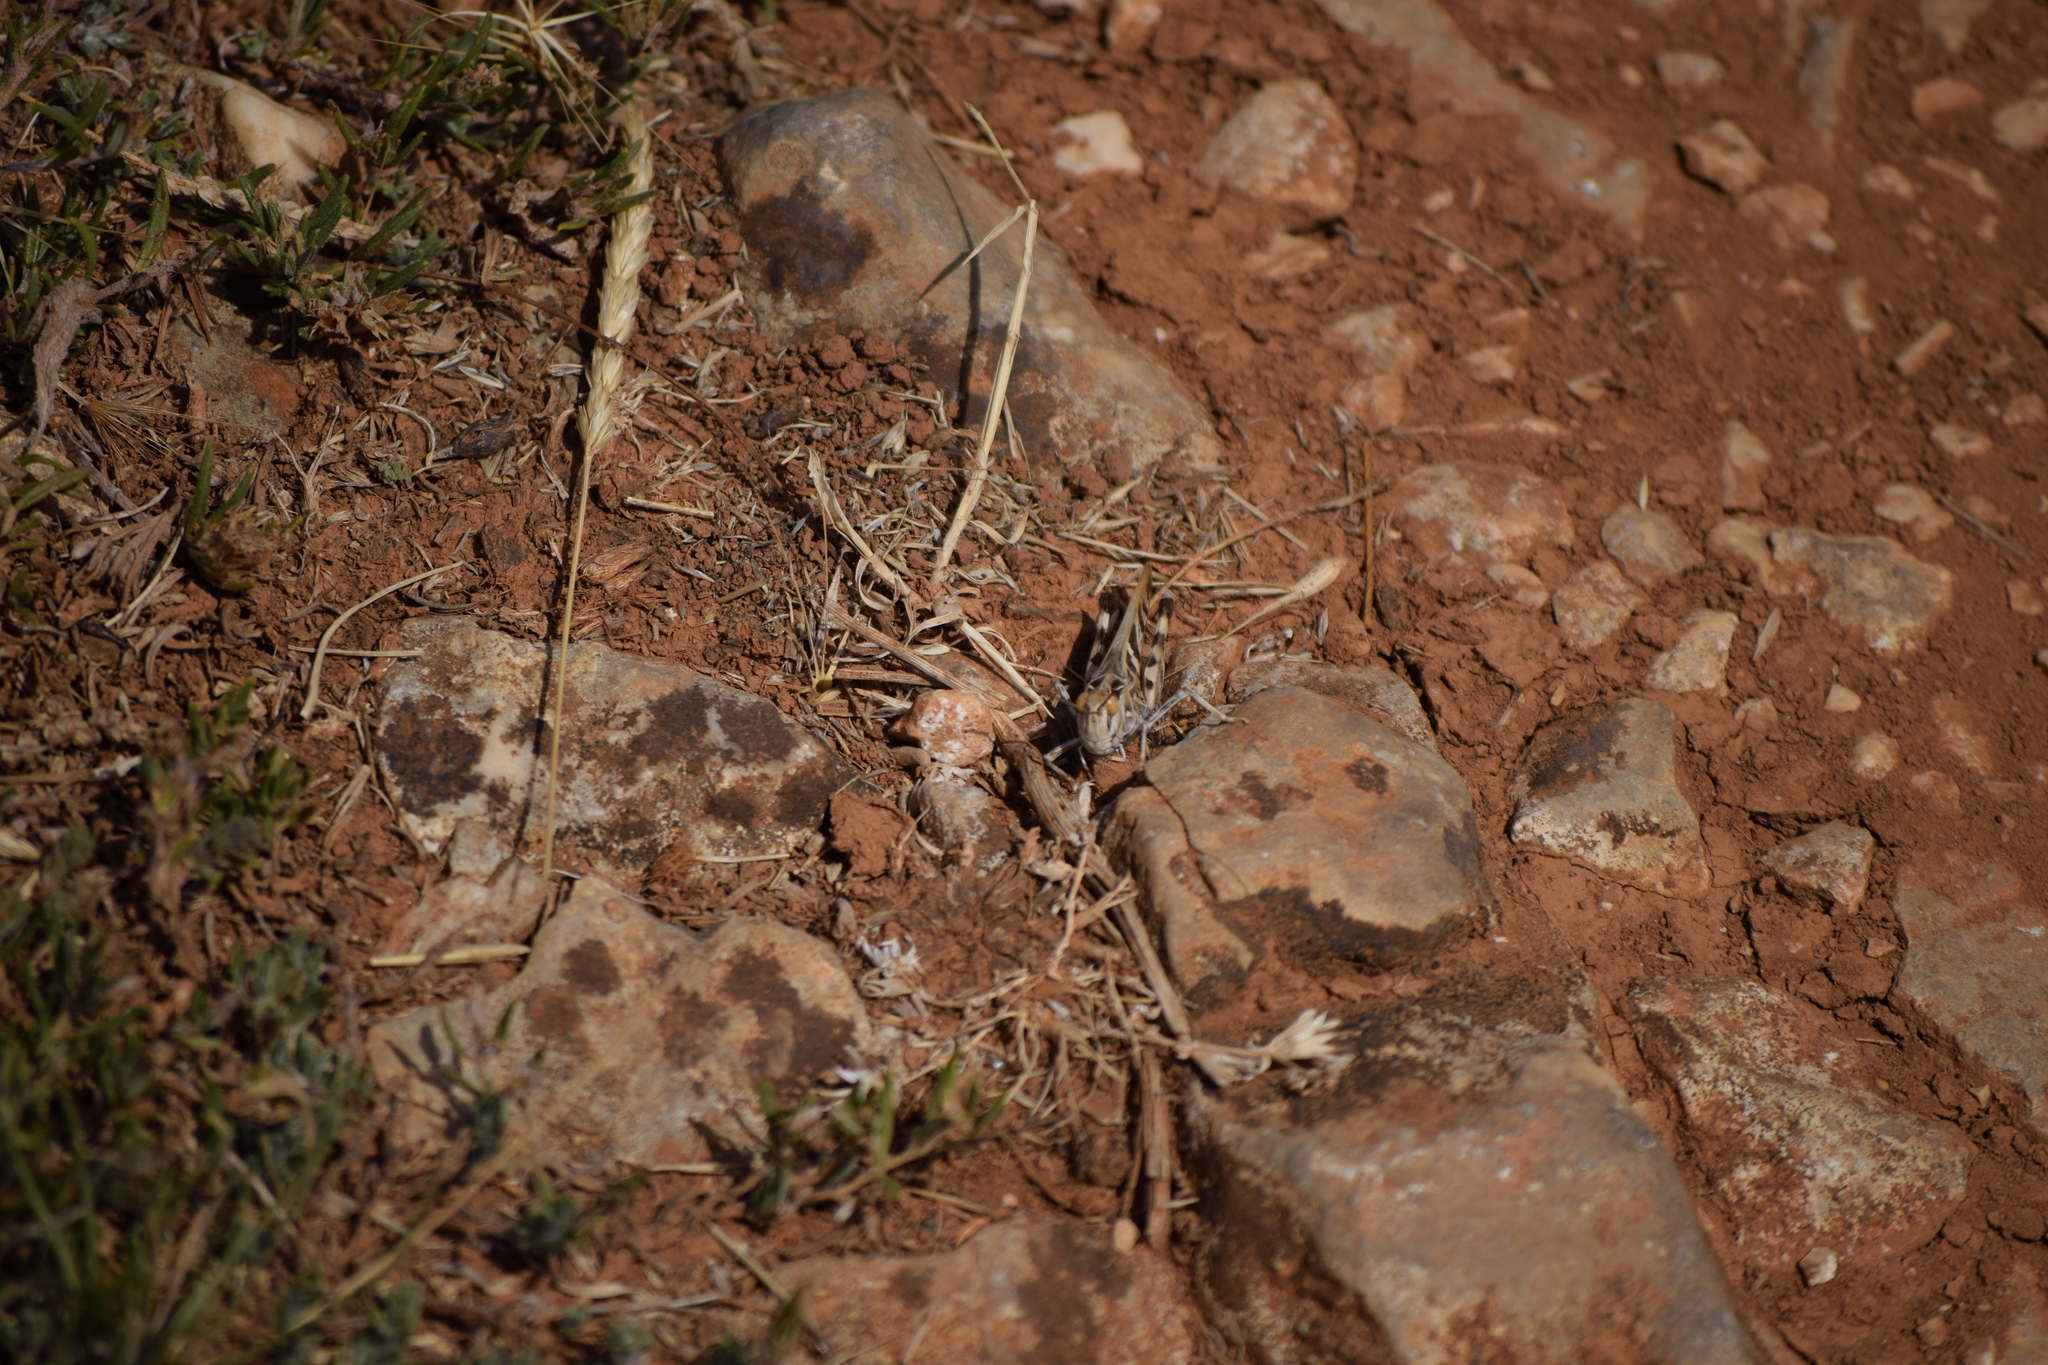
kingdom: Animalia
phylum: Arthropoda
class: Insecta
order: Orthoptera
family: Acrididae
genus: Oedaleus
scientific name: Oedaleus decorus
